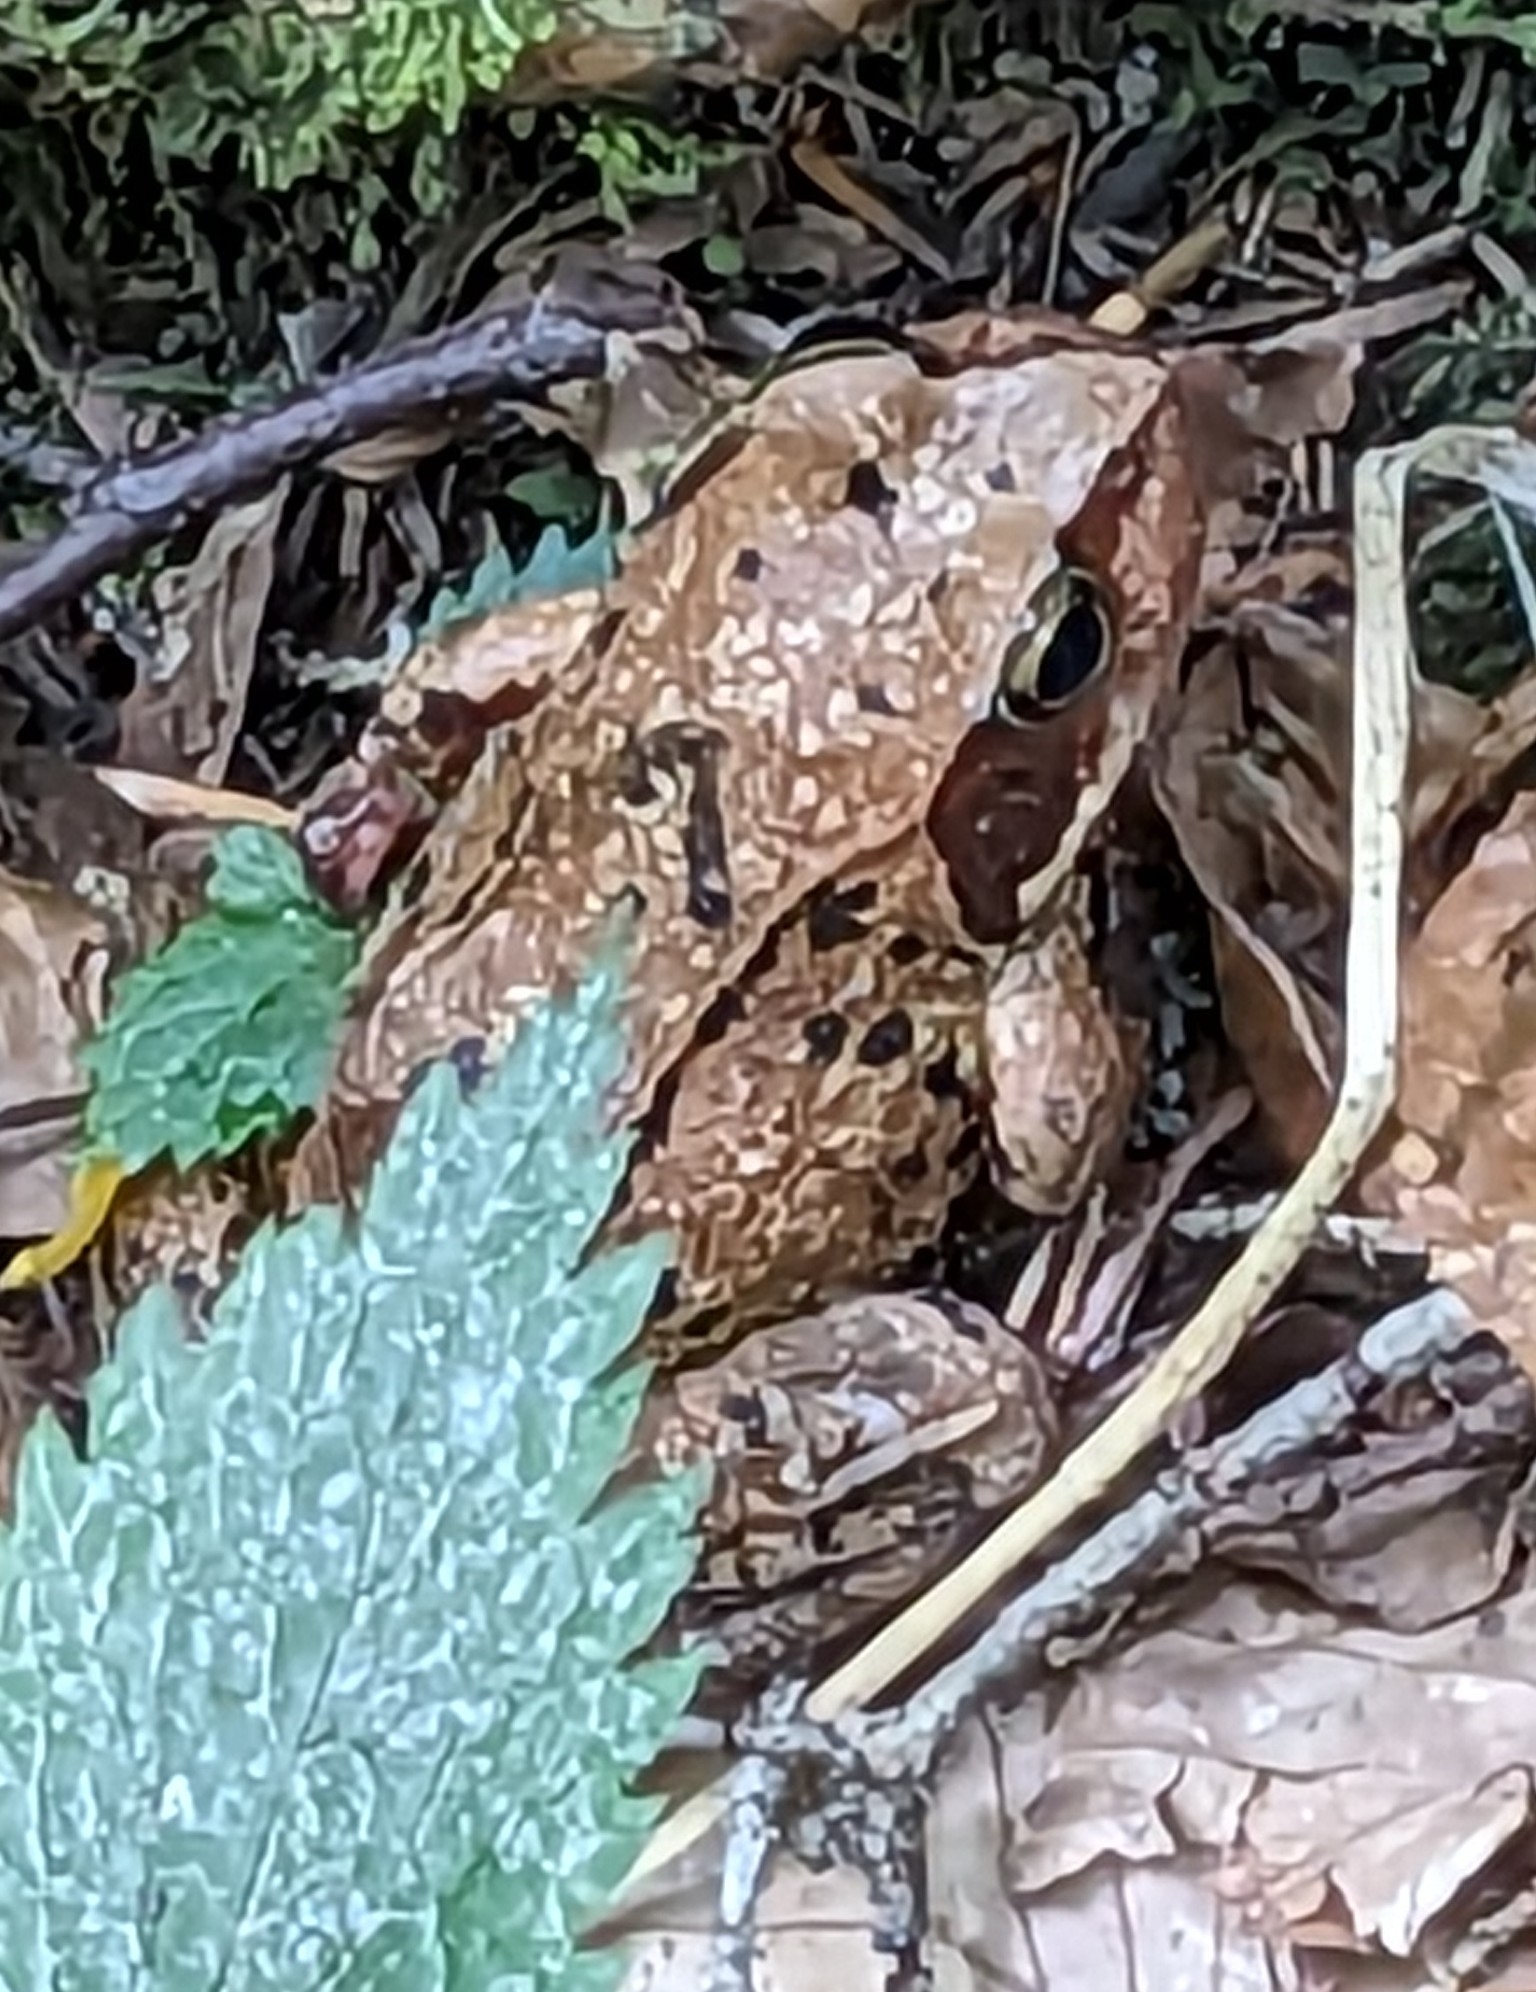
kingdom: Animalia
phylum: Chordata
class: Amphibia
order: Anura
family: Ranidae
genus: Rana
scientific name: Rana temporaria
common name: Common frog
